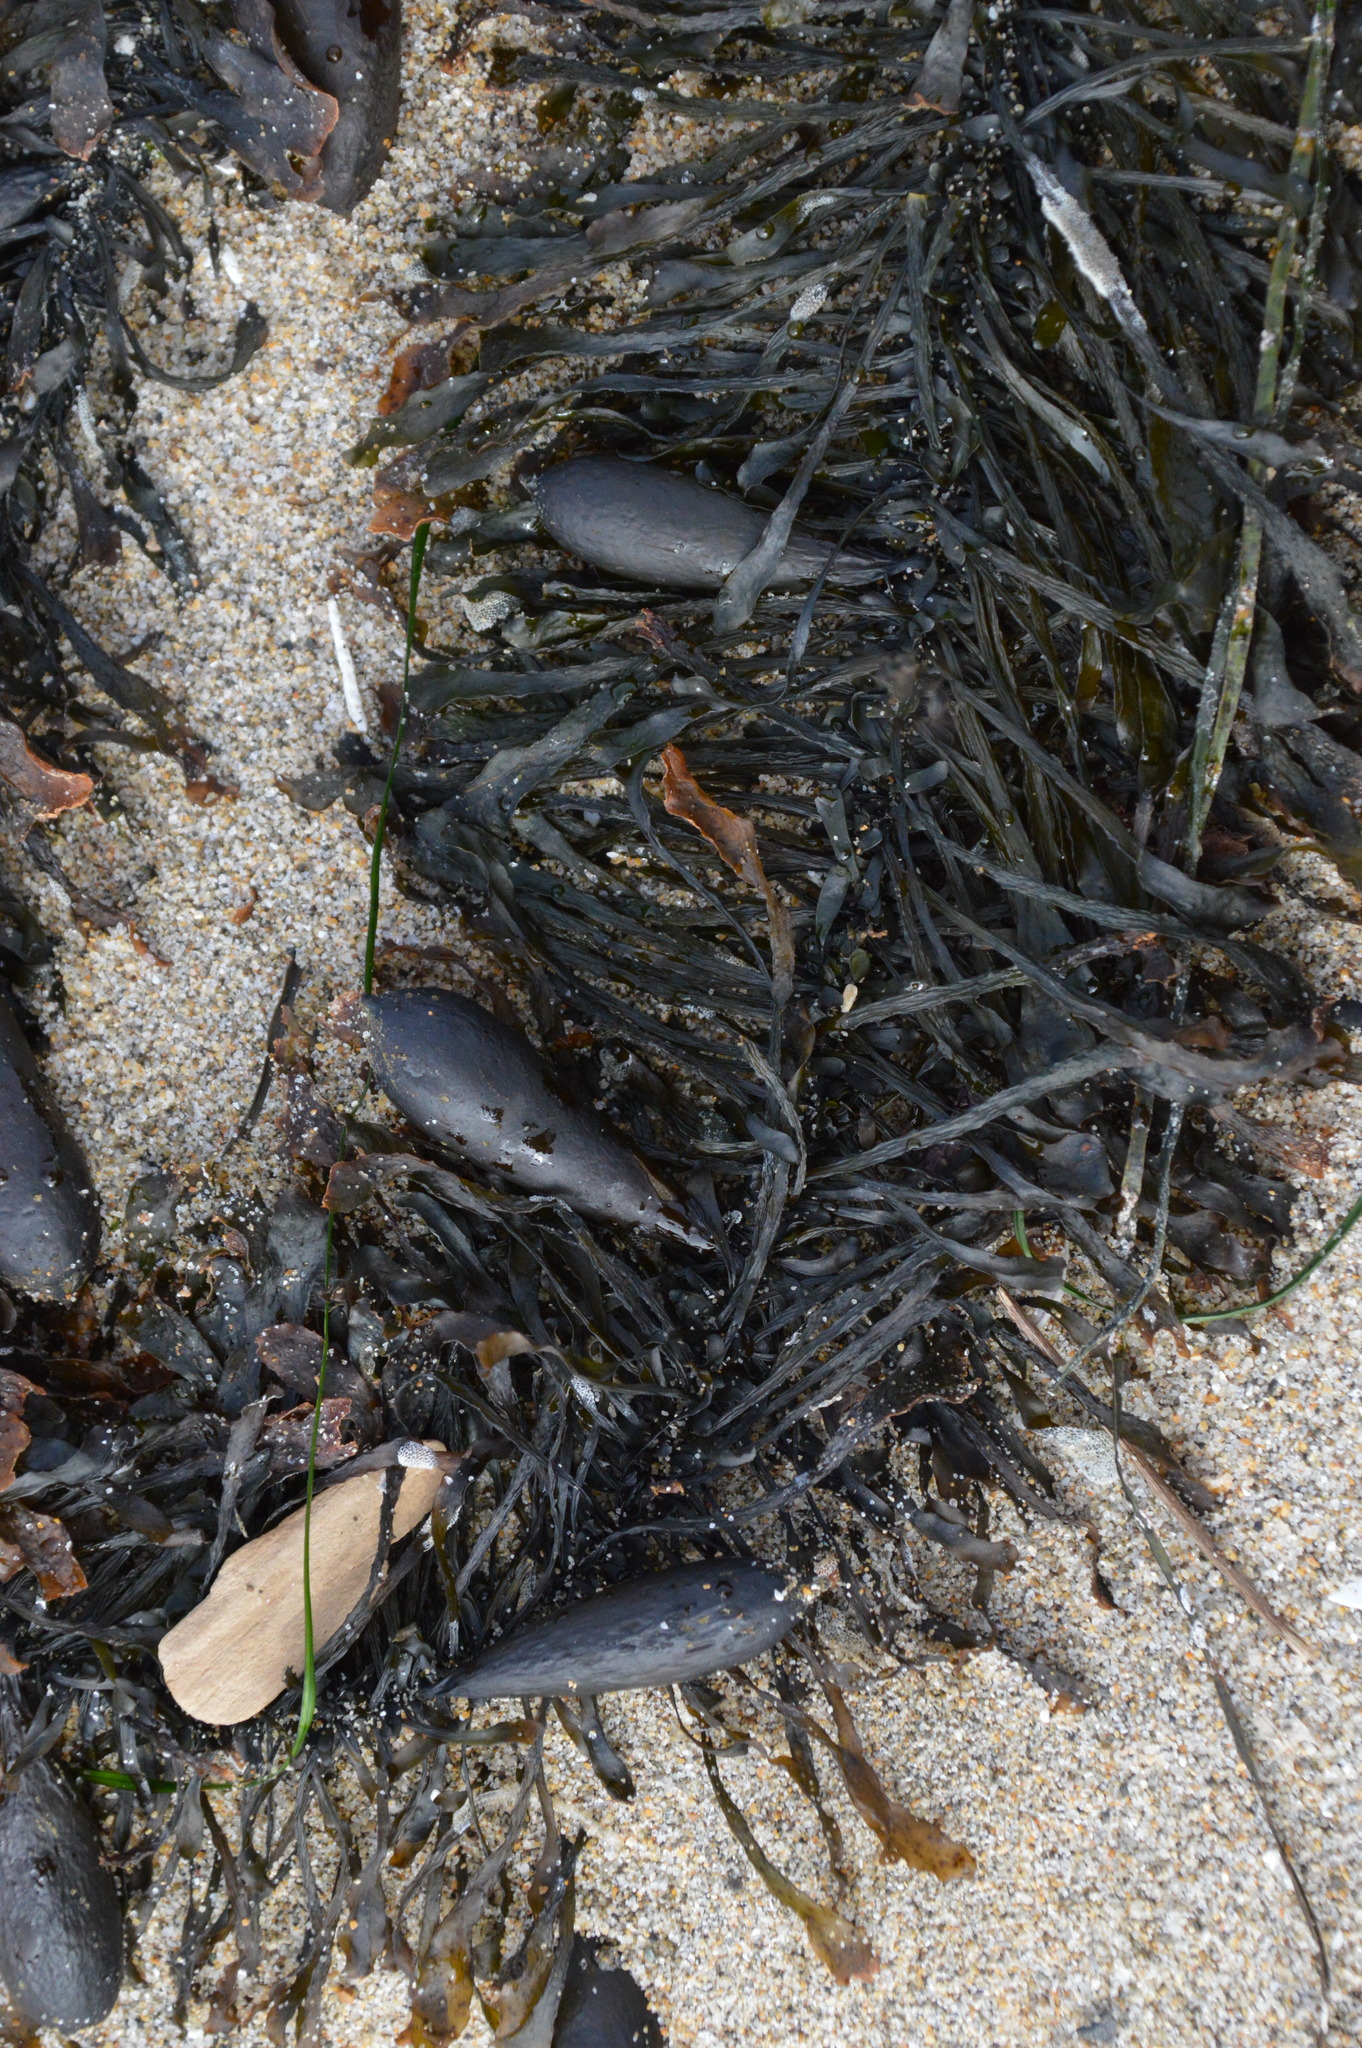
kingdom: Chromista
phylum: Ochrophyta
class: Phaeophyceae
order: Laminariales
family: Lessoniaceae
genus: Egregia
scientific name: Egregia menziesii
